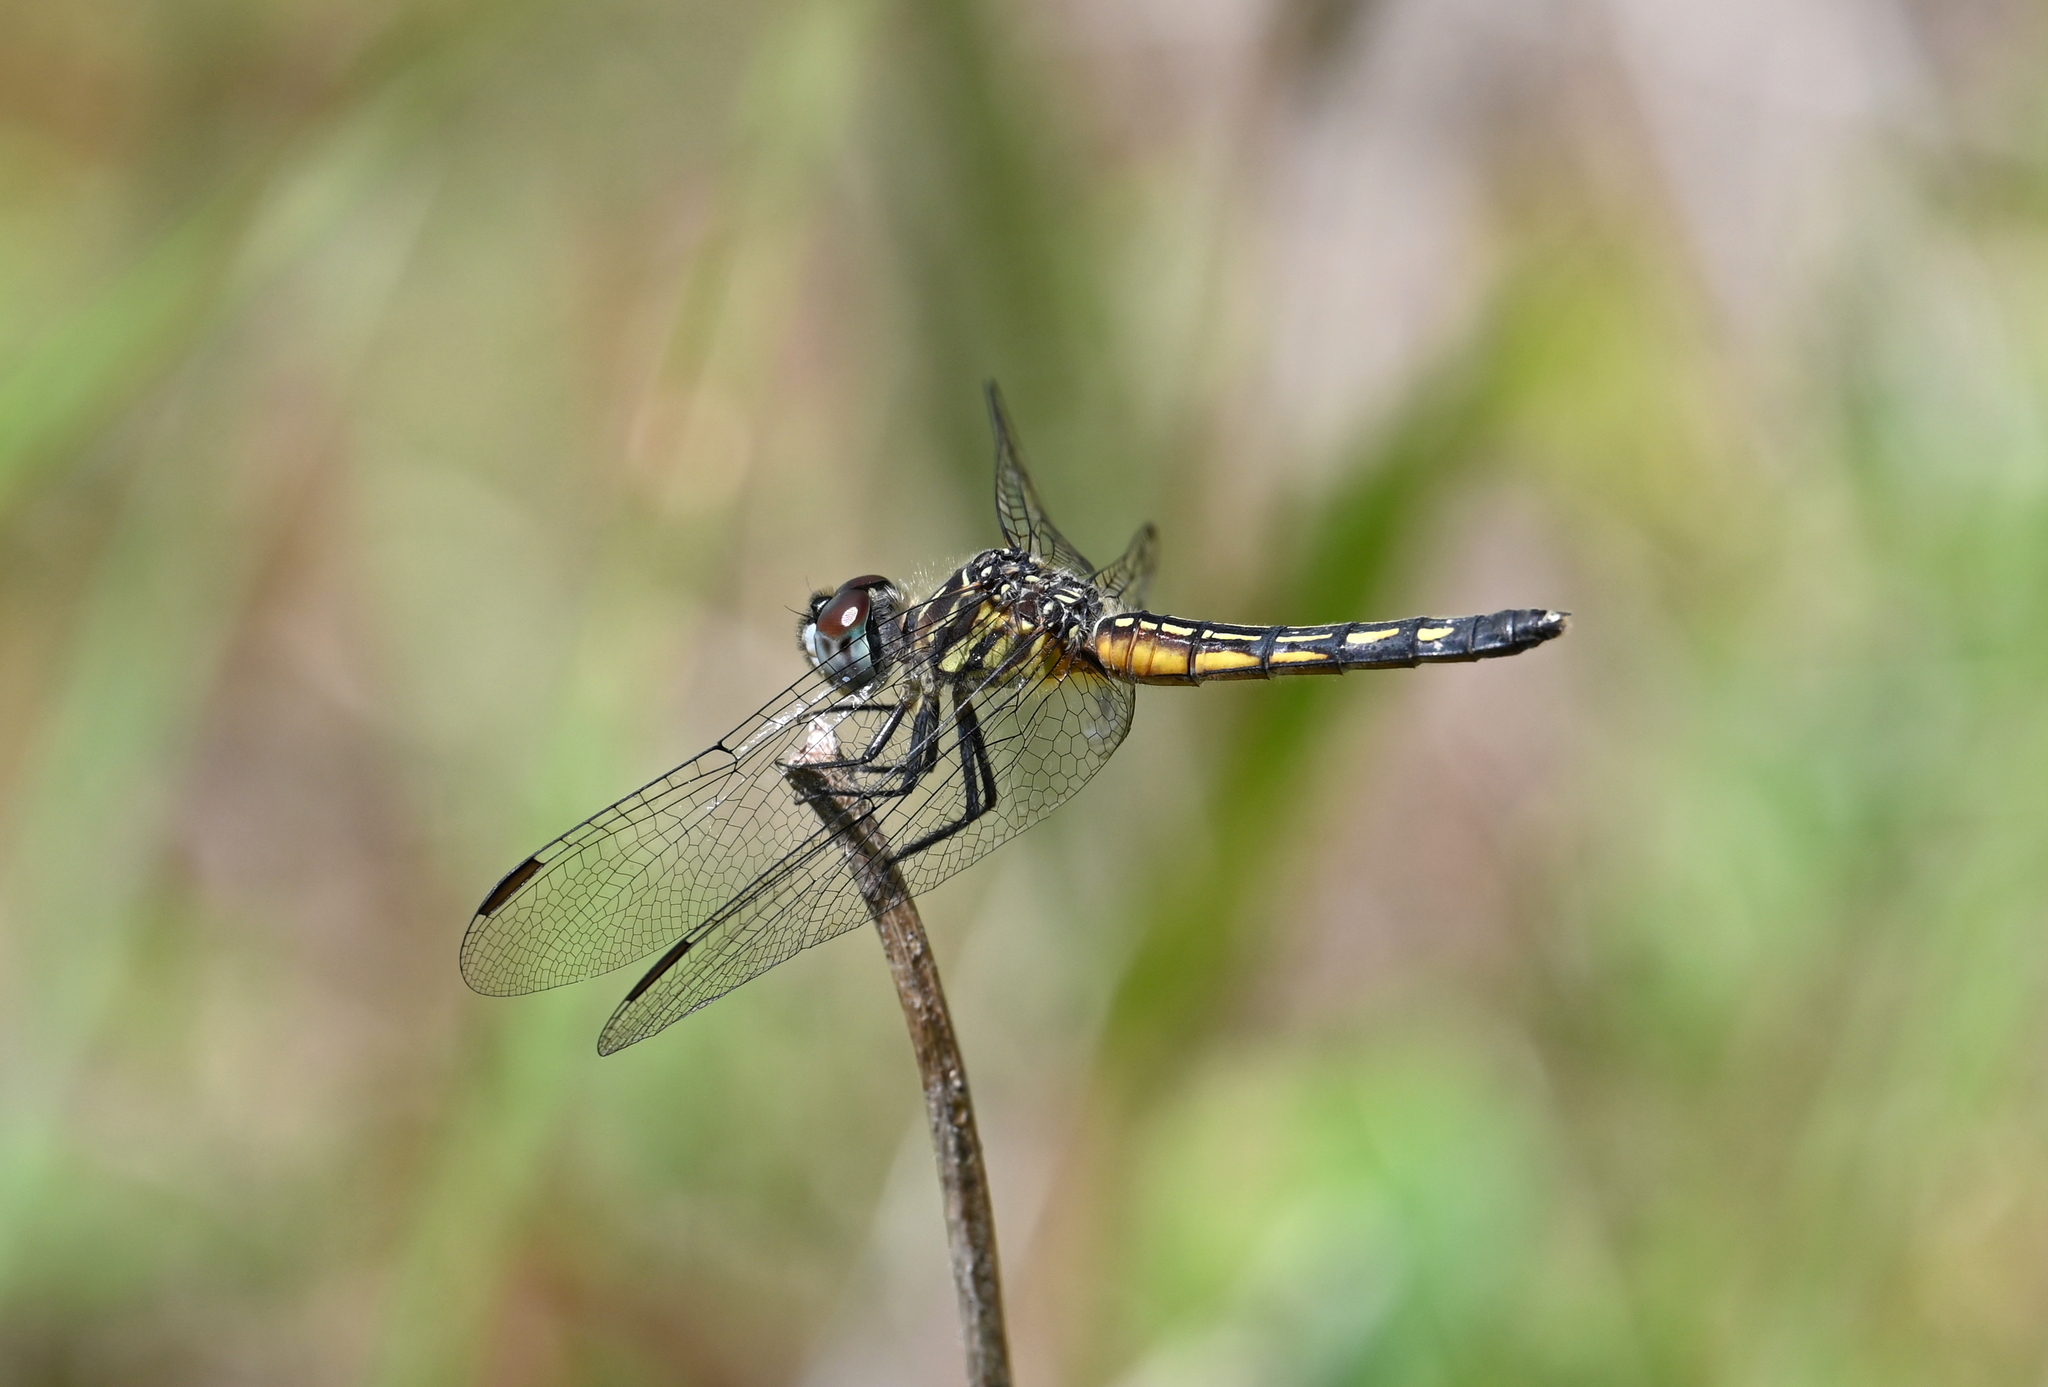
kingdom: Animalia
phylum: Arthropoda
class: Insecta
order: Odonata
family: Libellulidae
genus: Pachydiplax
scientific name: Pachydiplax longipennis
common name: Blue dasher
